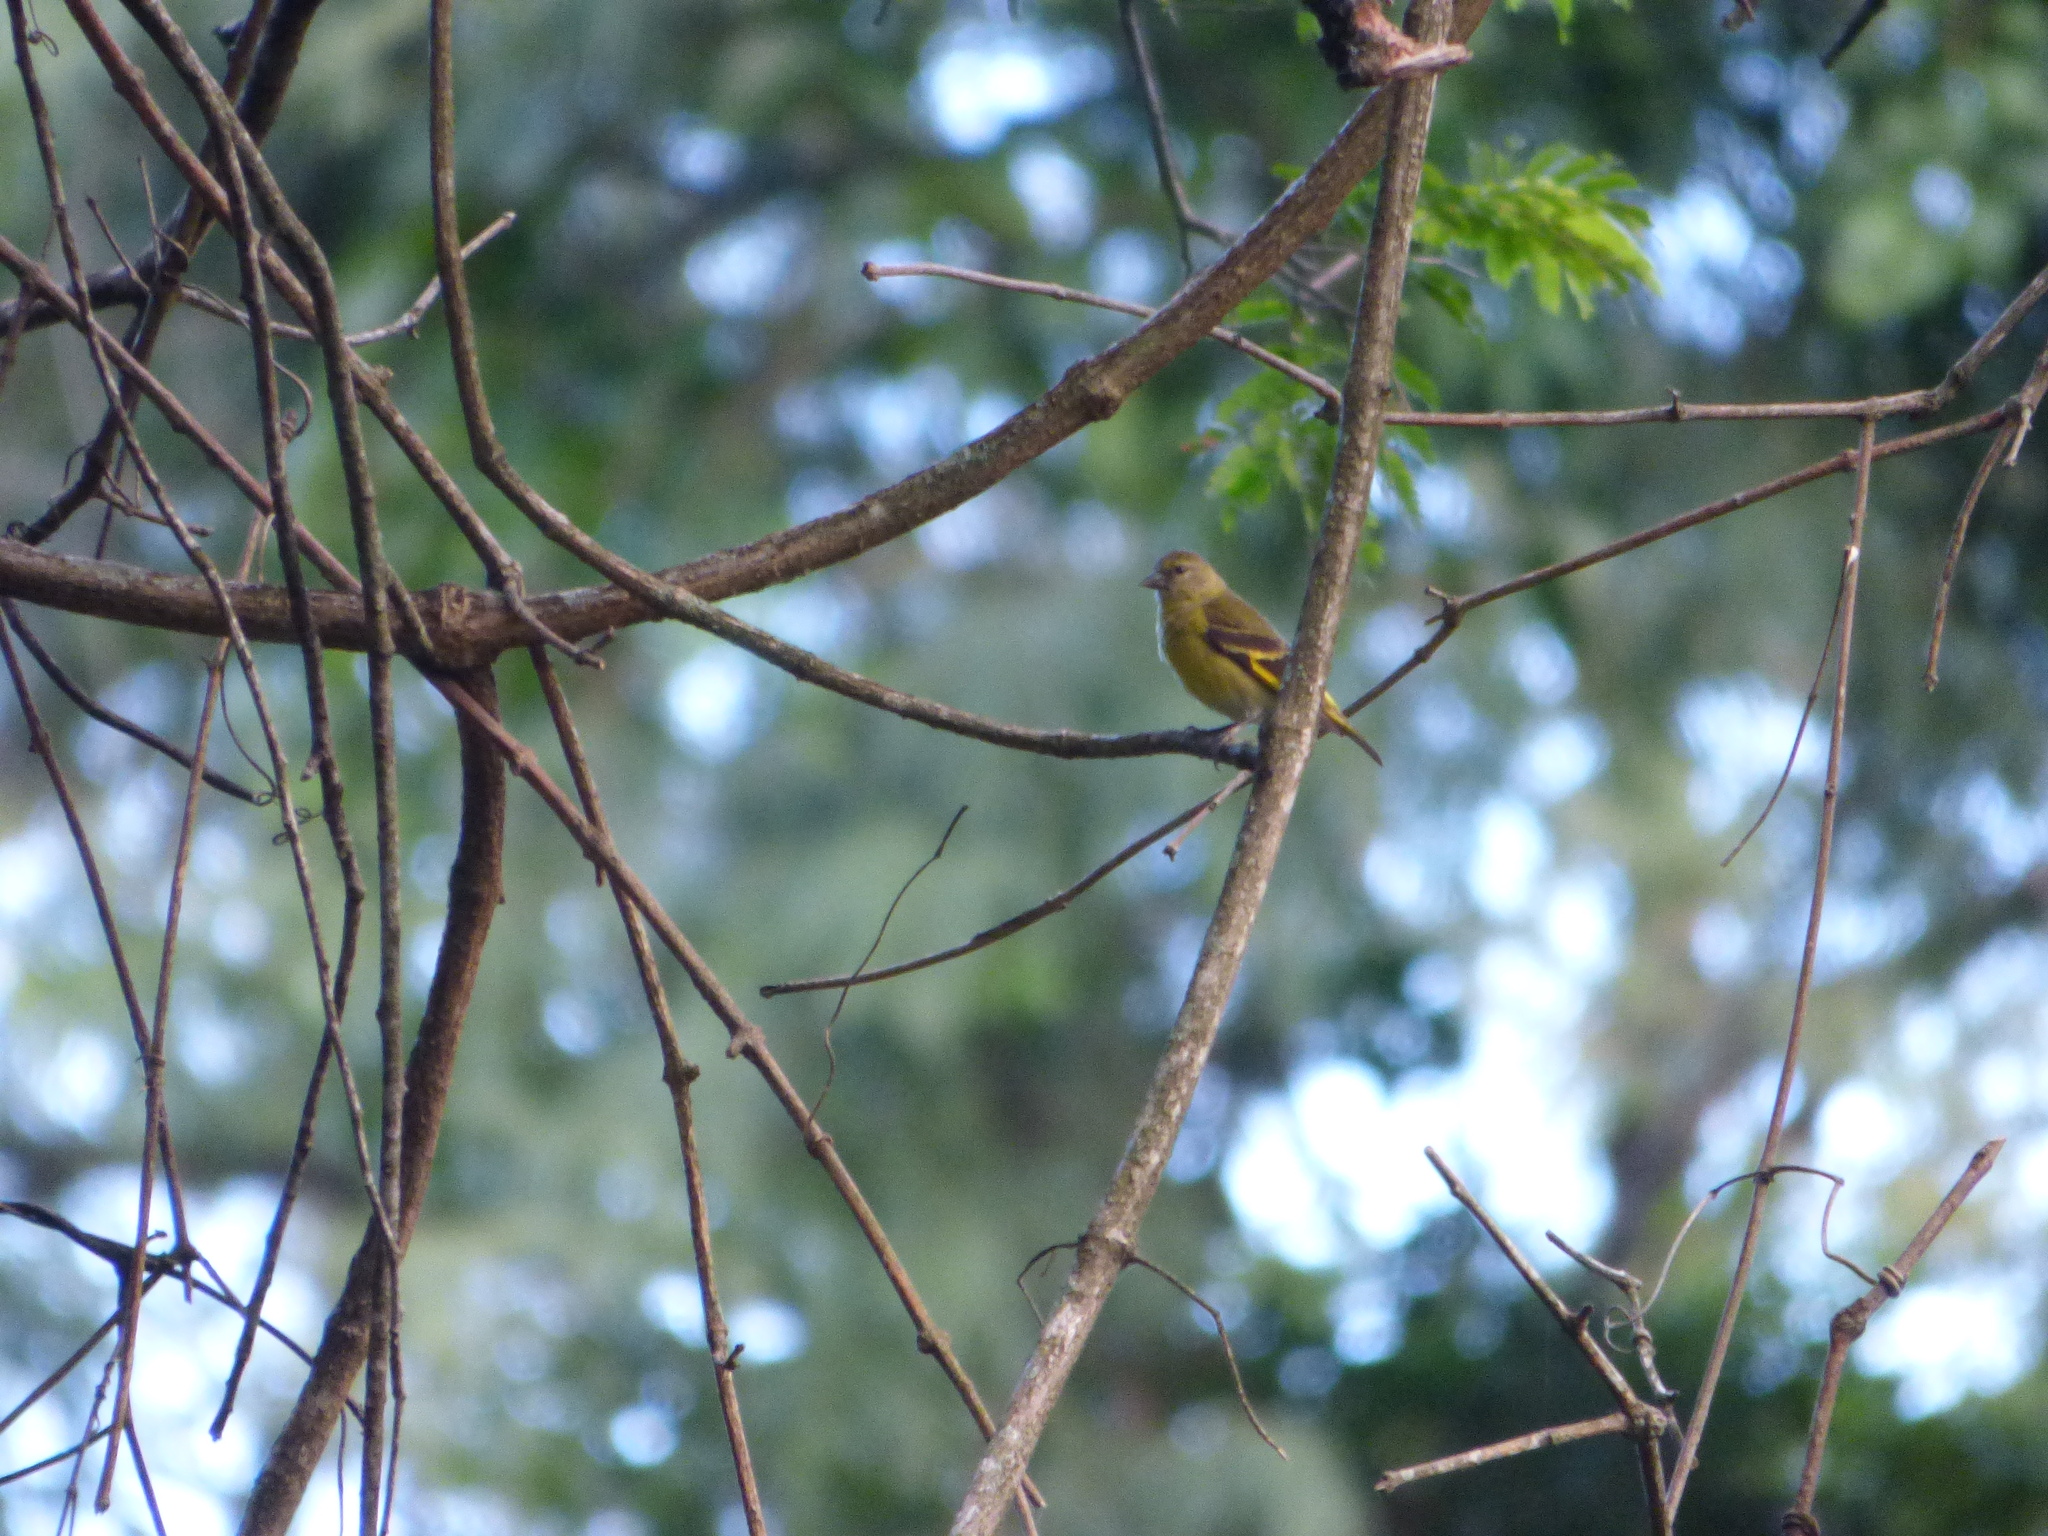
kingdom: Animalia
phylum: Chordata
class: Aves
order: Passeriformes
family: Fringillidae
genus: Spinus
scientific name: Spinus magellanicus
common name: Hooded siskin
